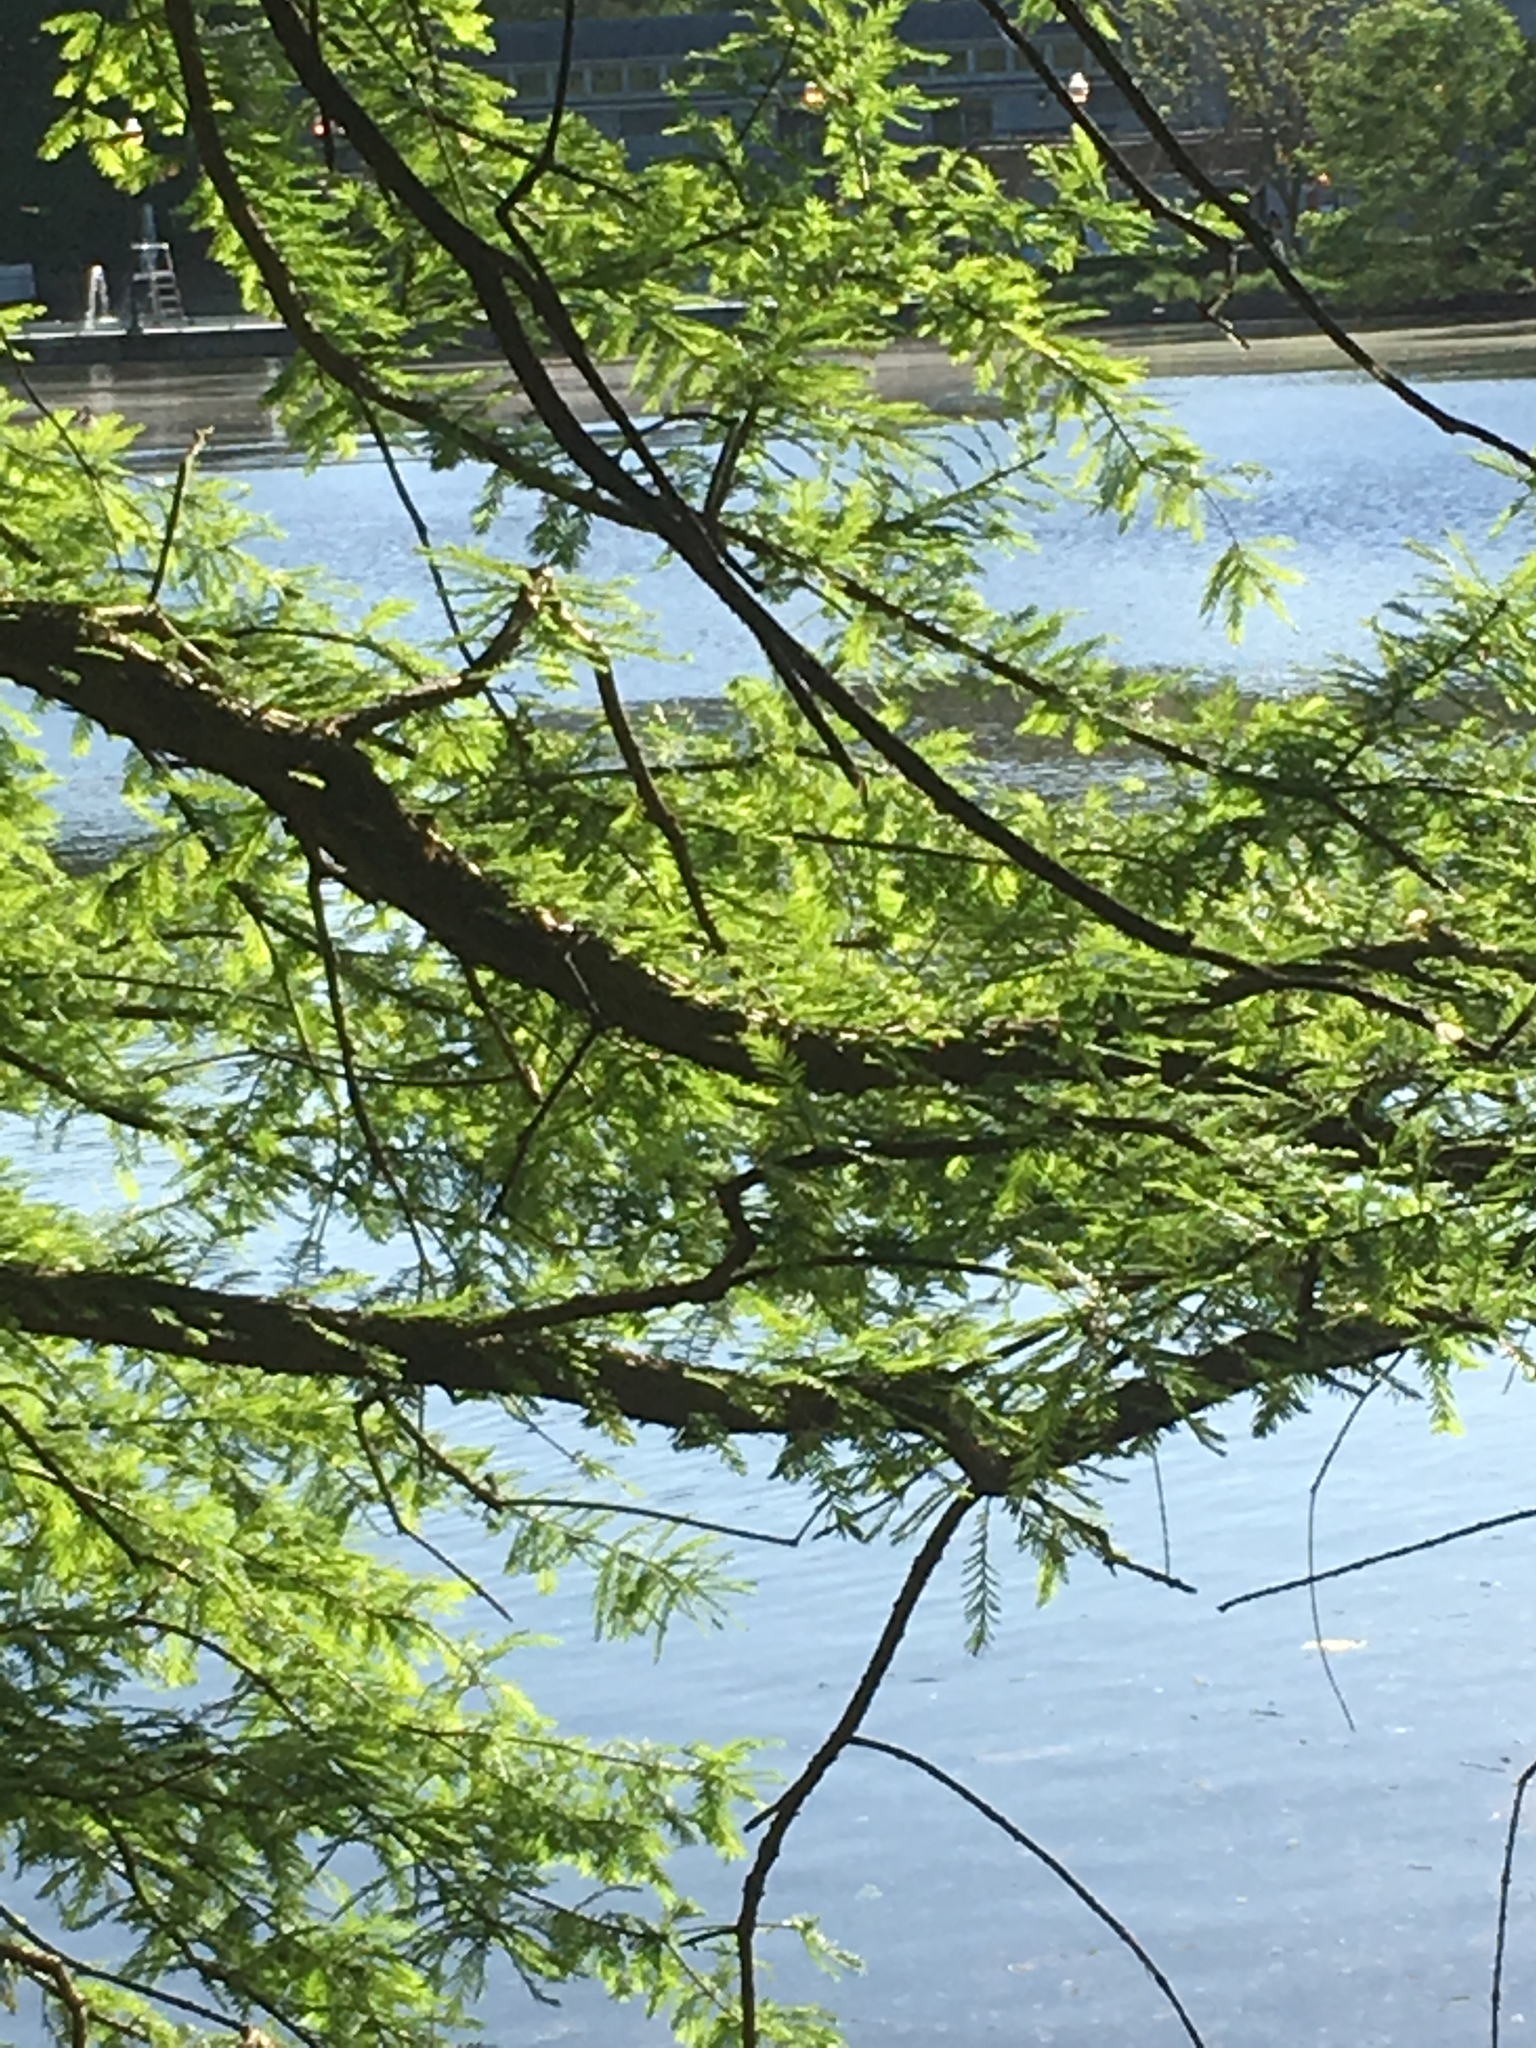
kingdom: Plantae
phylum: Tracheophyta
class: Pinopsida
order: Pinales
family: Cupressaceae
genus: Taxodium
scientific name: Taxodium distichum
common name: Bald cypress
